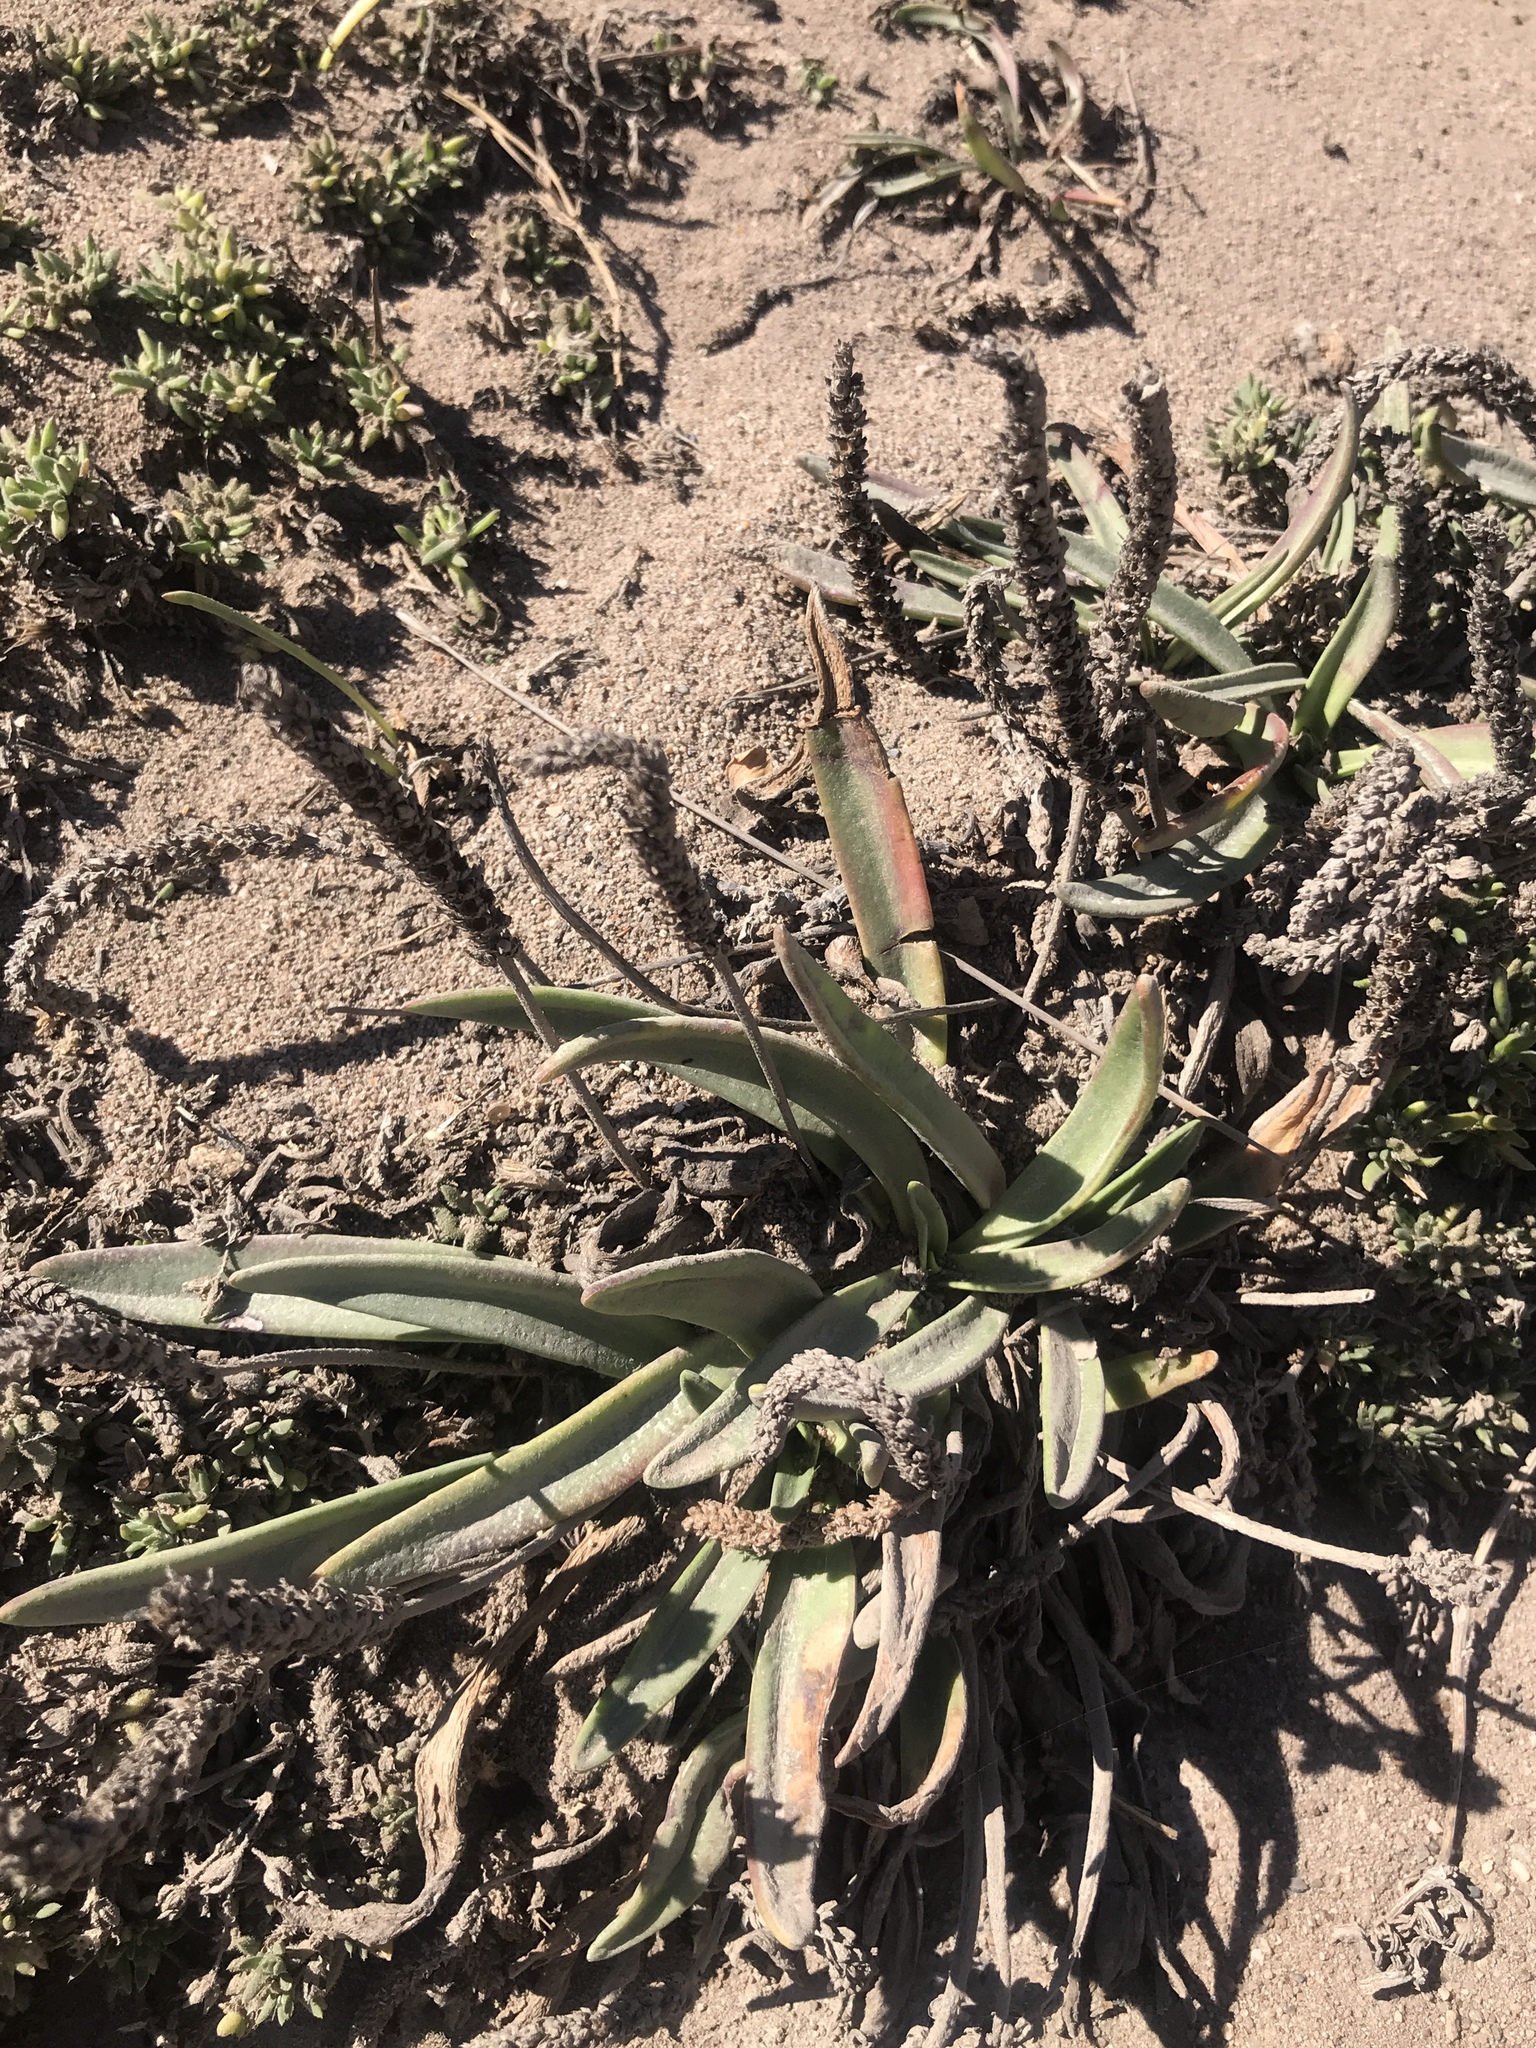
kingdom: Plantae
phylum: Tracheophyta
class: Magnoliopsida
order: Lamiales
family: Plantaginaceae
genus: Plantago
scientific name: Plantago maritima
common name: Sea plantain
